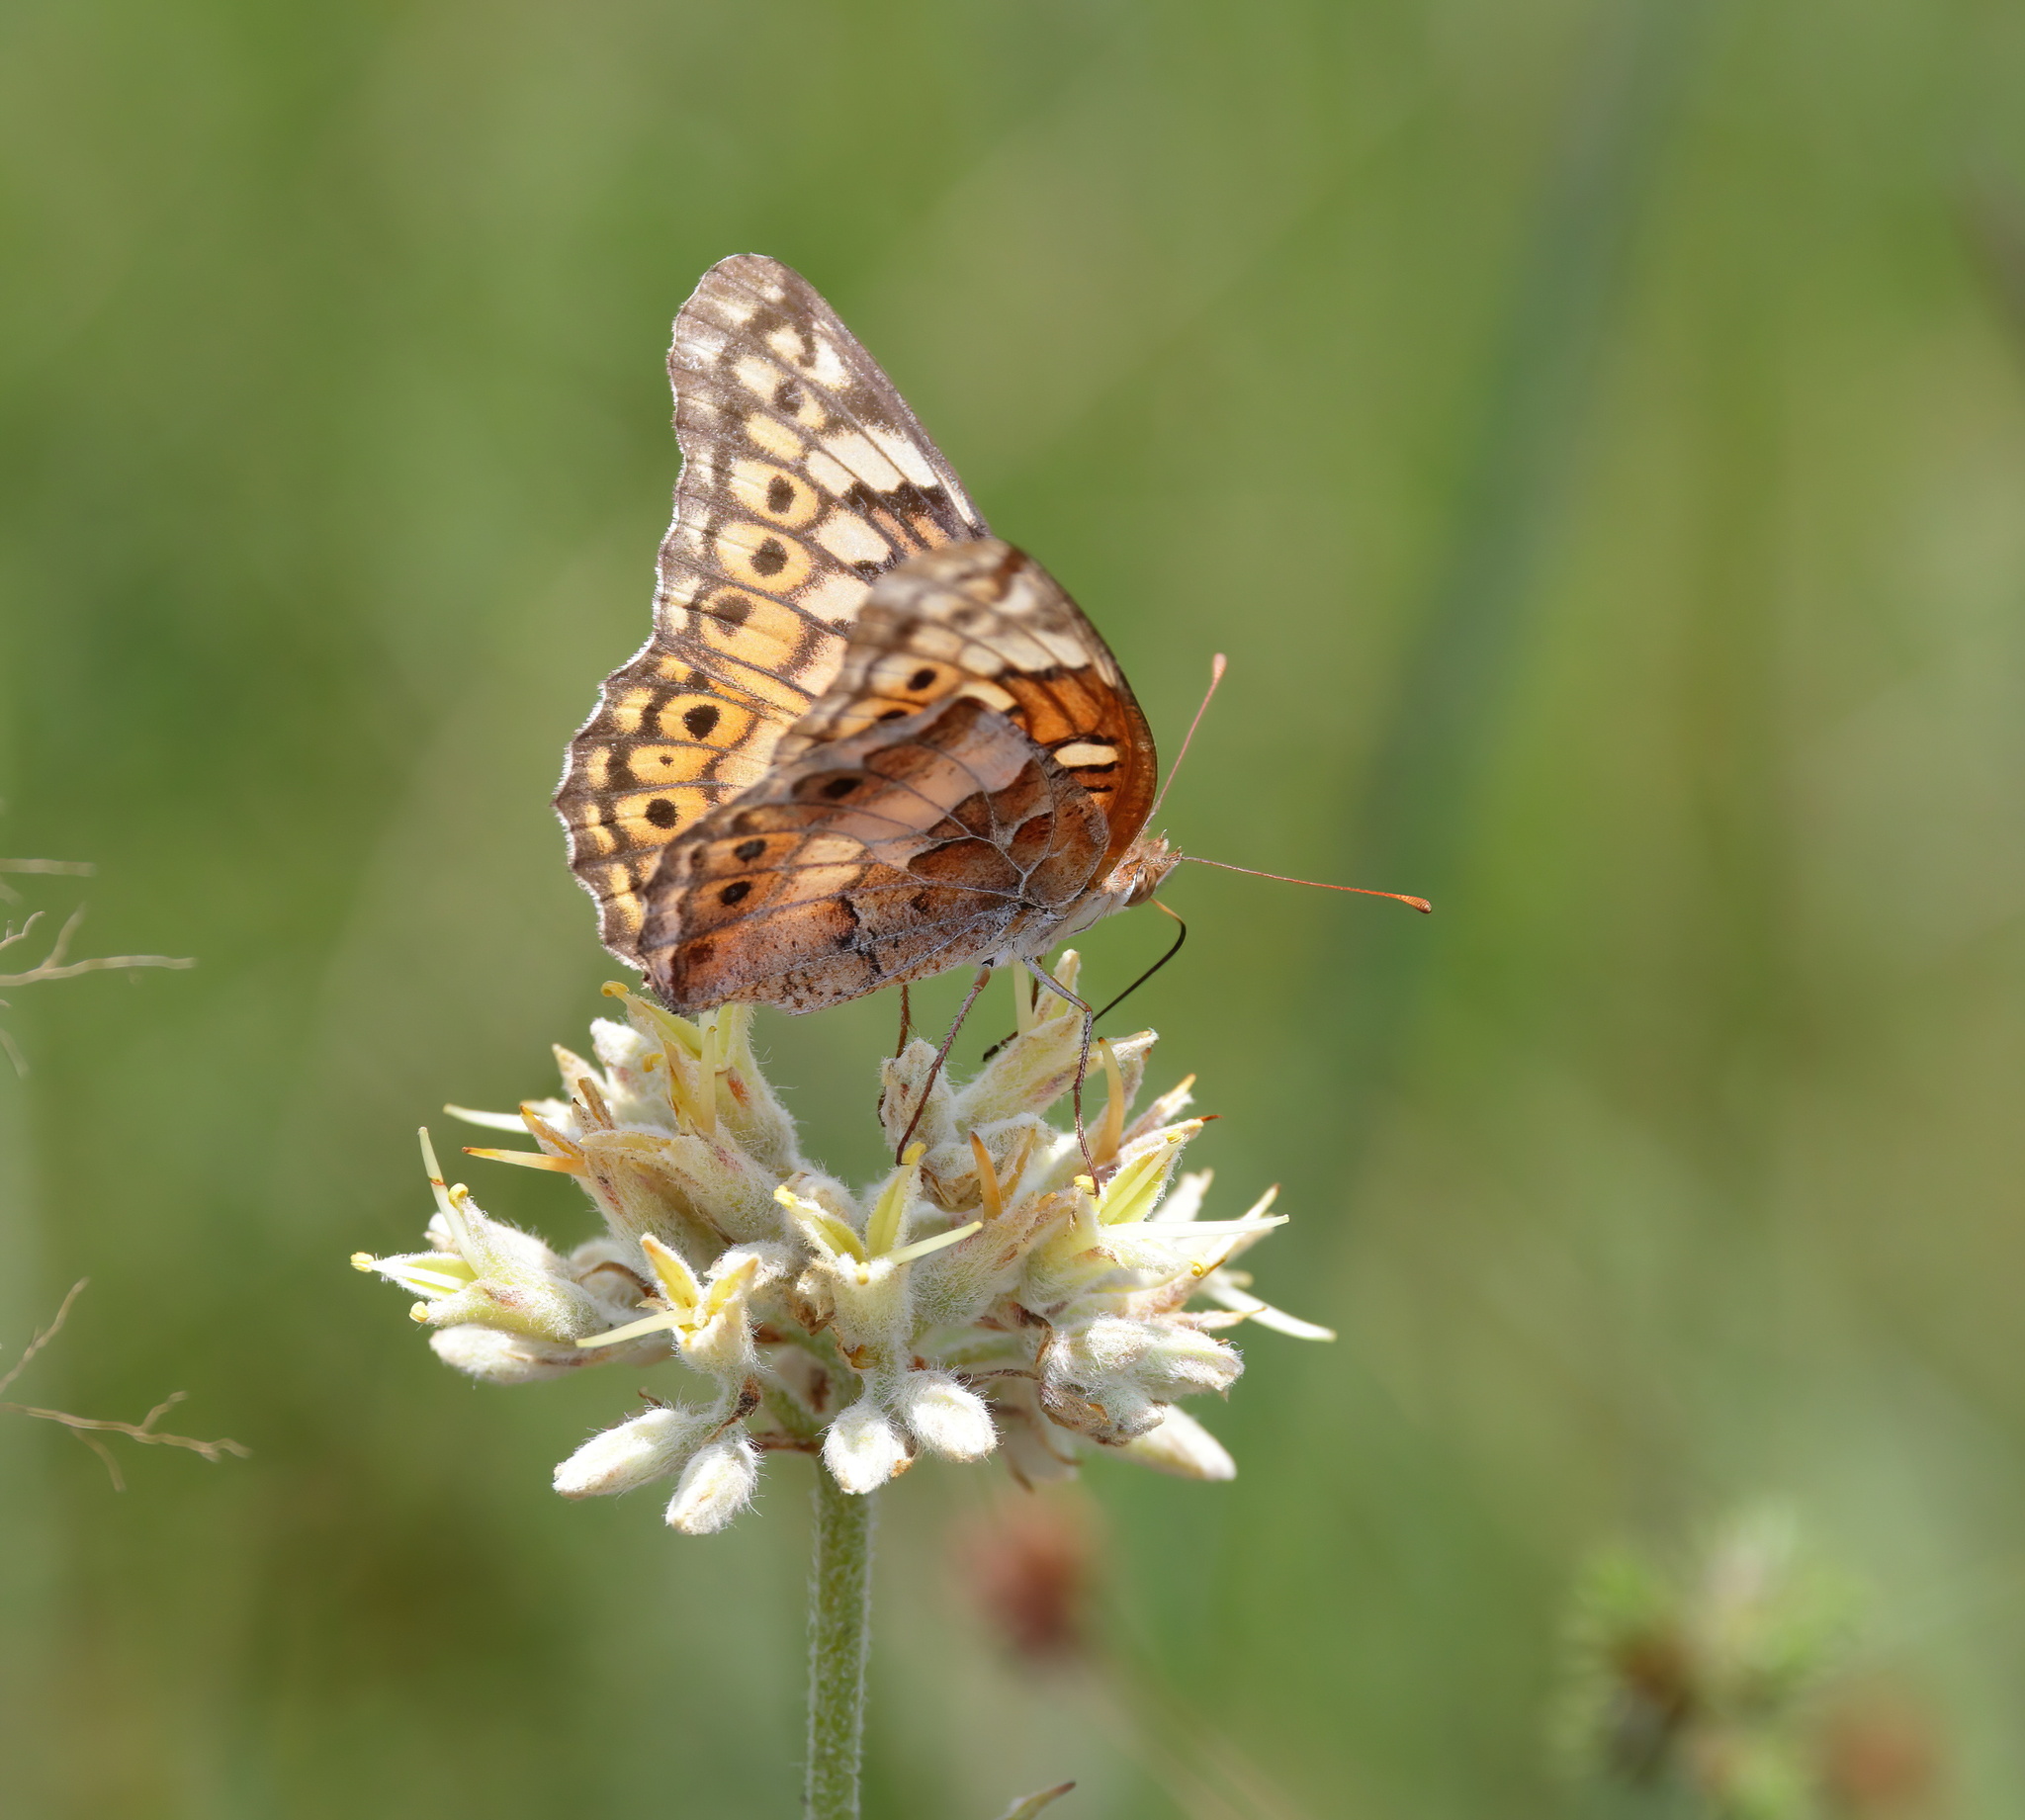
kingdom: Animalia
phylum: Arthropoda
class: Insecta
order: Lepidoptera
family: Nymphalidae
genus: Euptoieta
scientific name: Euptoieta claudia
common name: Variegated fritillary
